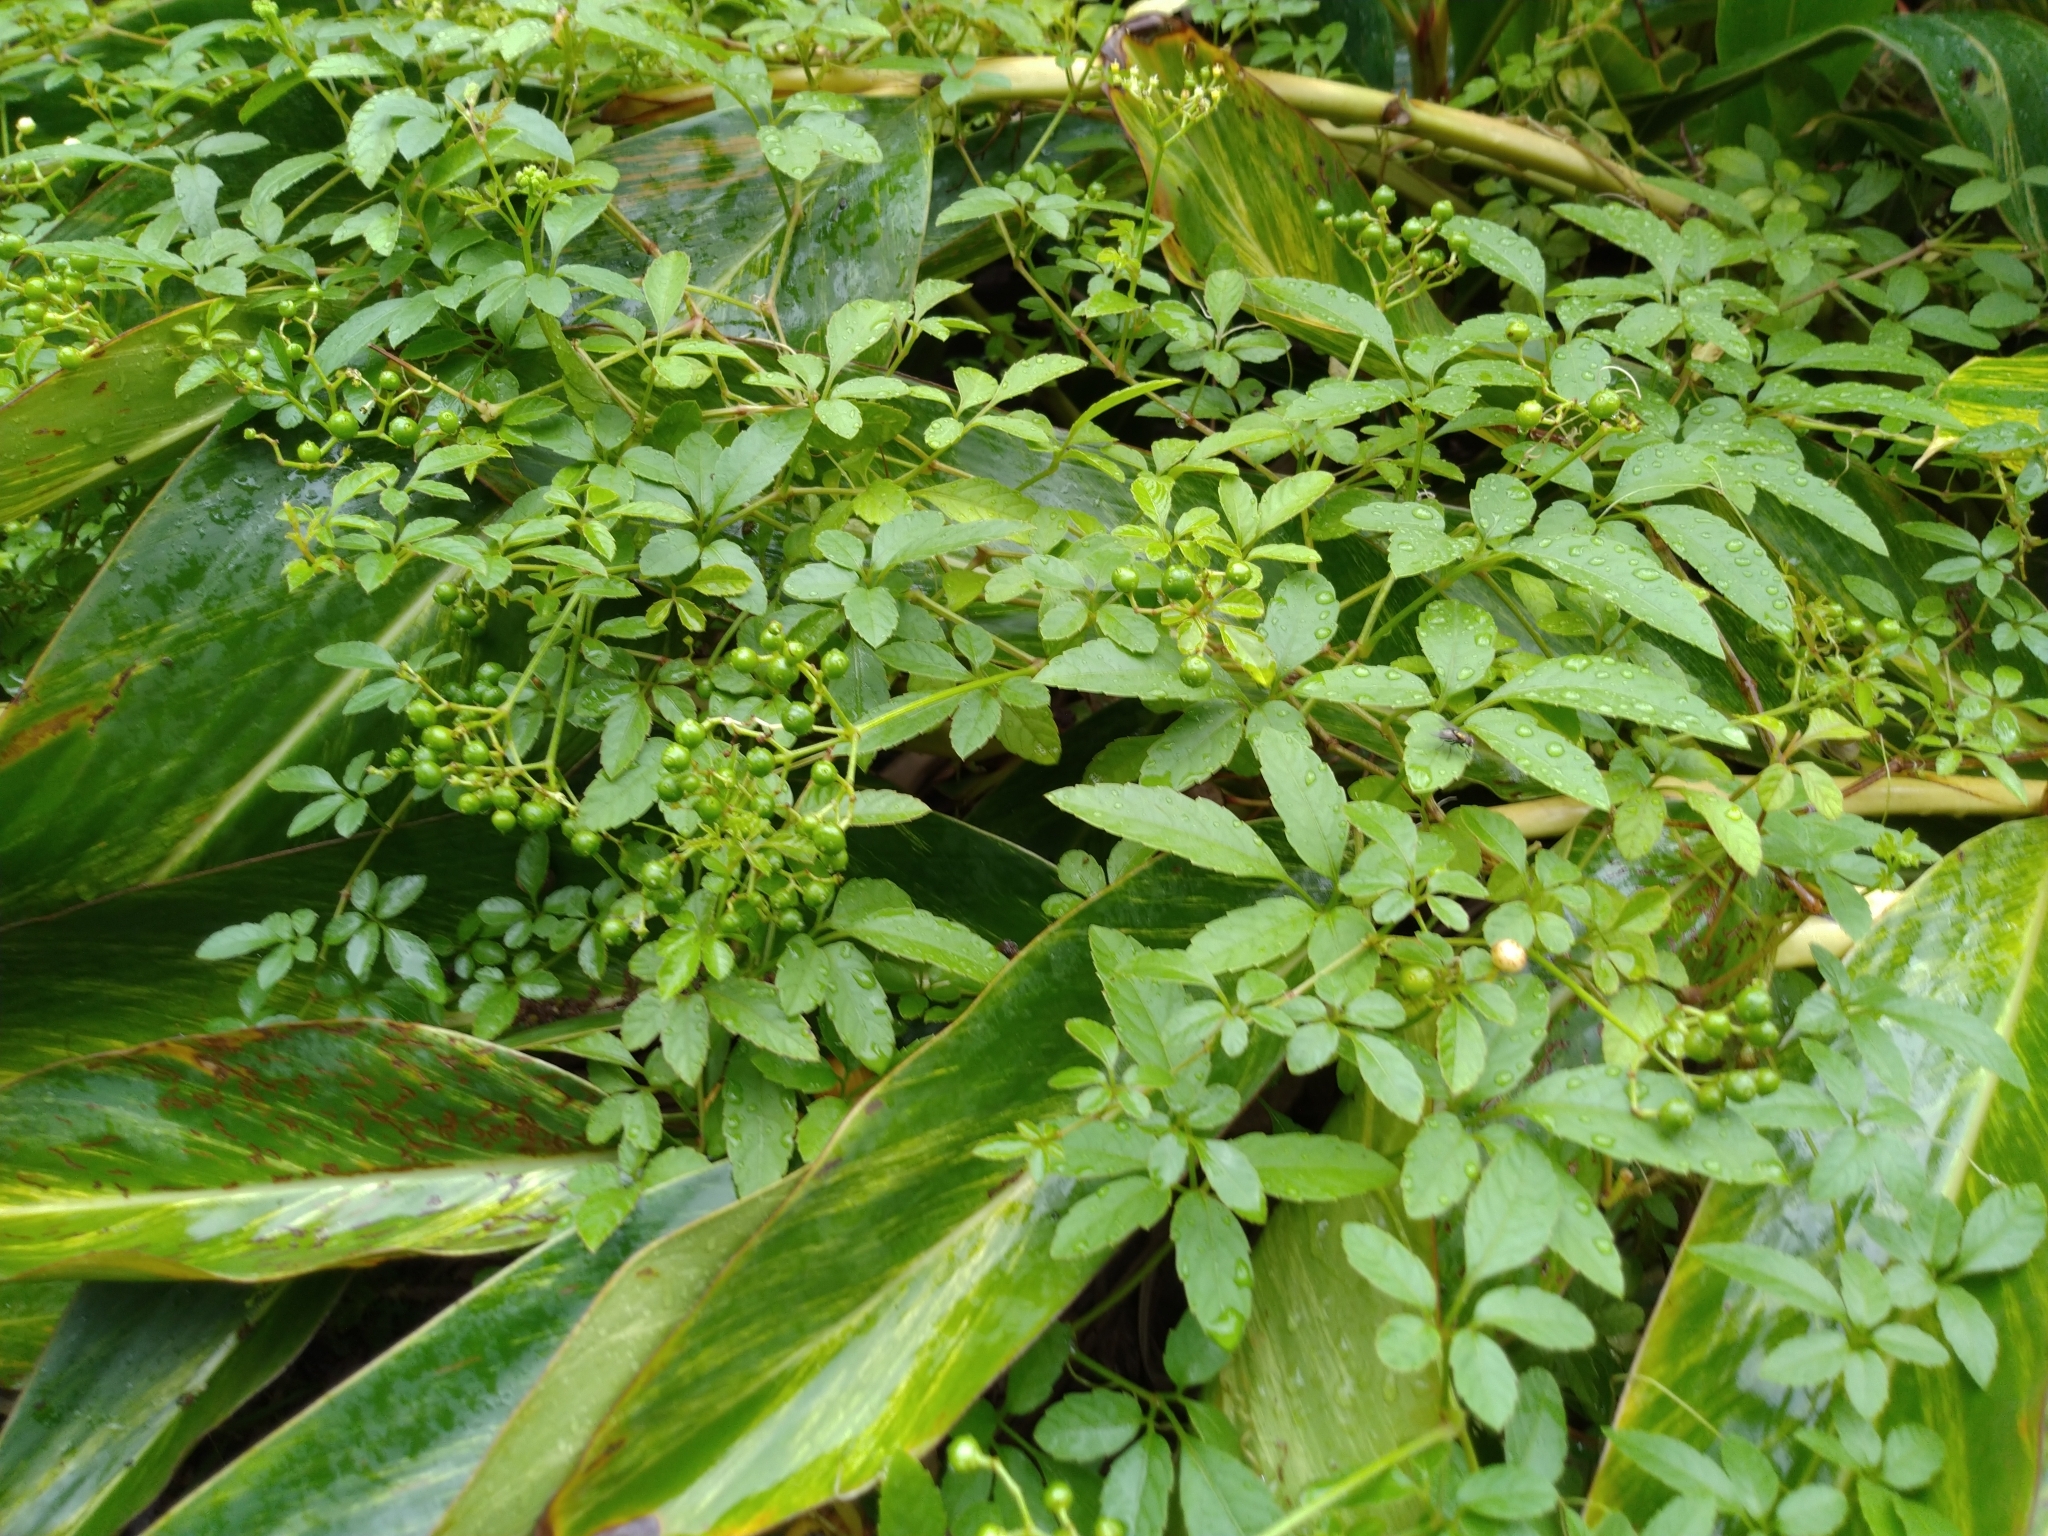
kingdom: Plantae
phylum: Tracheophyta
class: Magnoliopsida
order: Vitales
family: Vitaceae
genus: Causonis
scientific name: Causonis japonica
